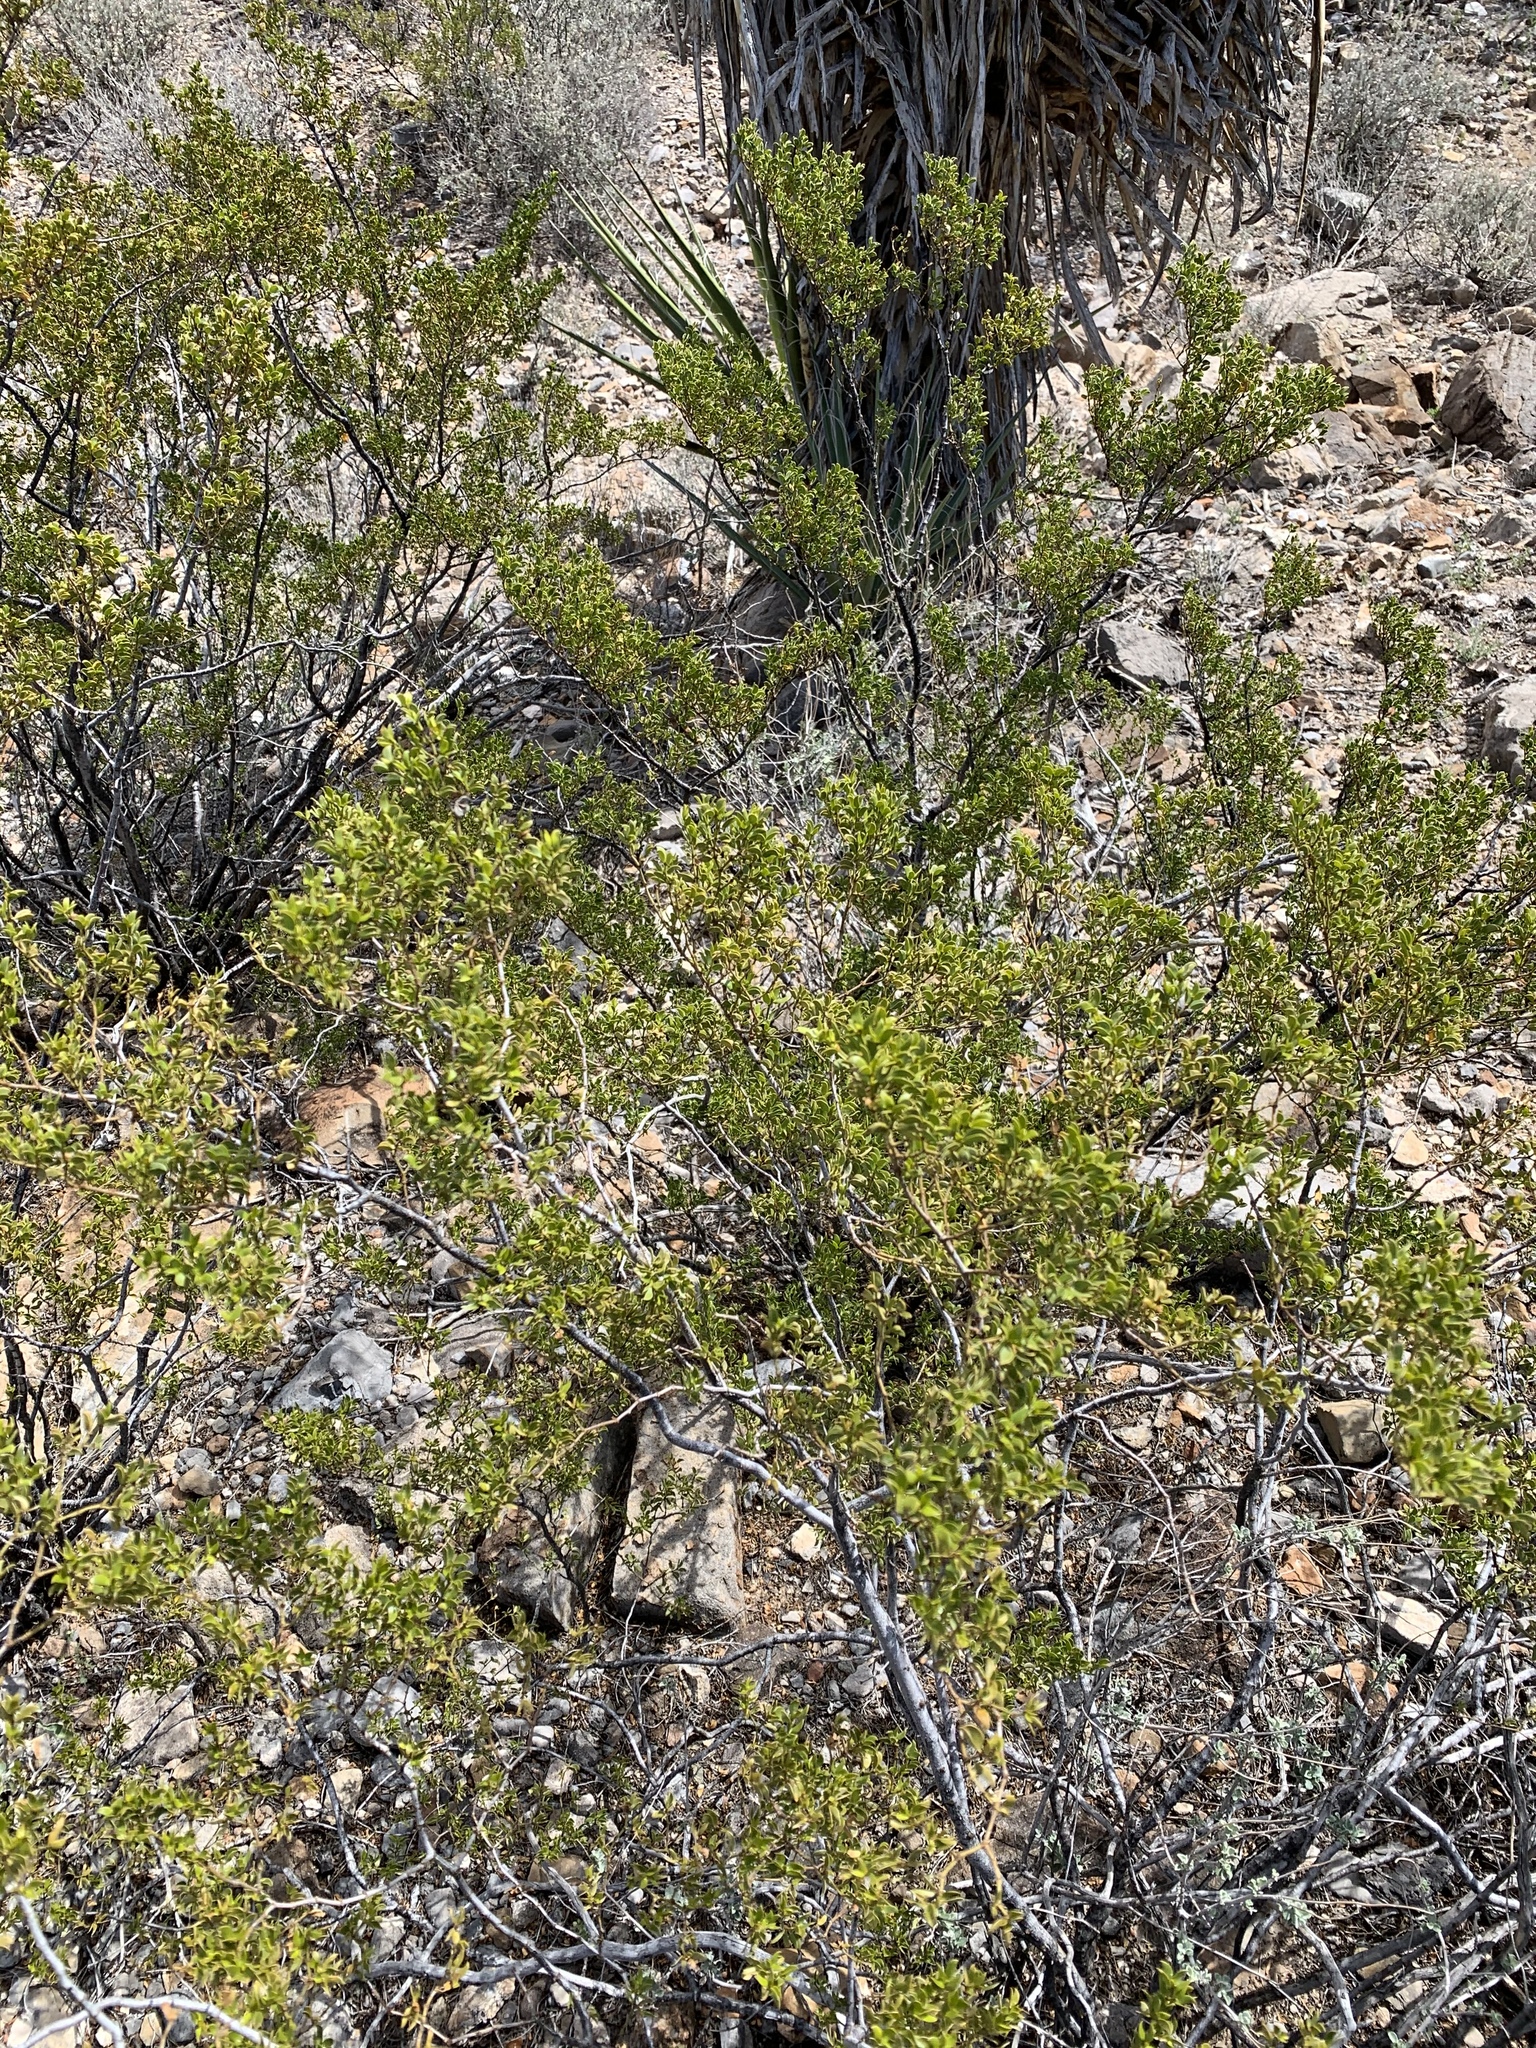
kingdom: Plantae
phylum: Tracheophyta
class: Magnoliopsida
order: Zygophyllales
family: Zygophyllaceae
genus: Larrea
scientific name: Larrea tridentata
